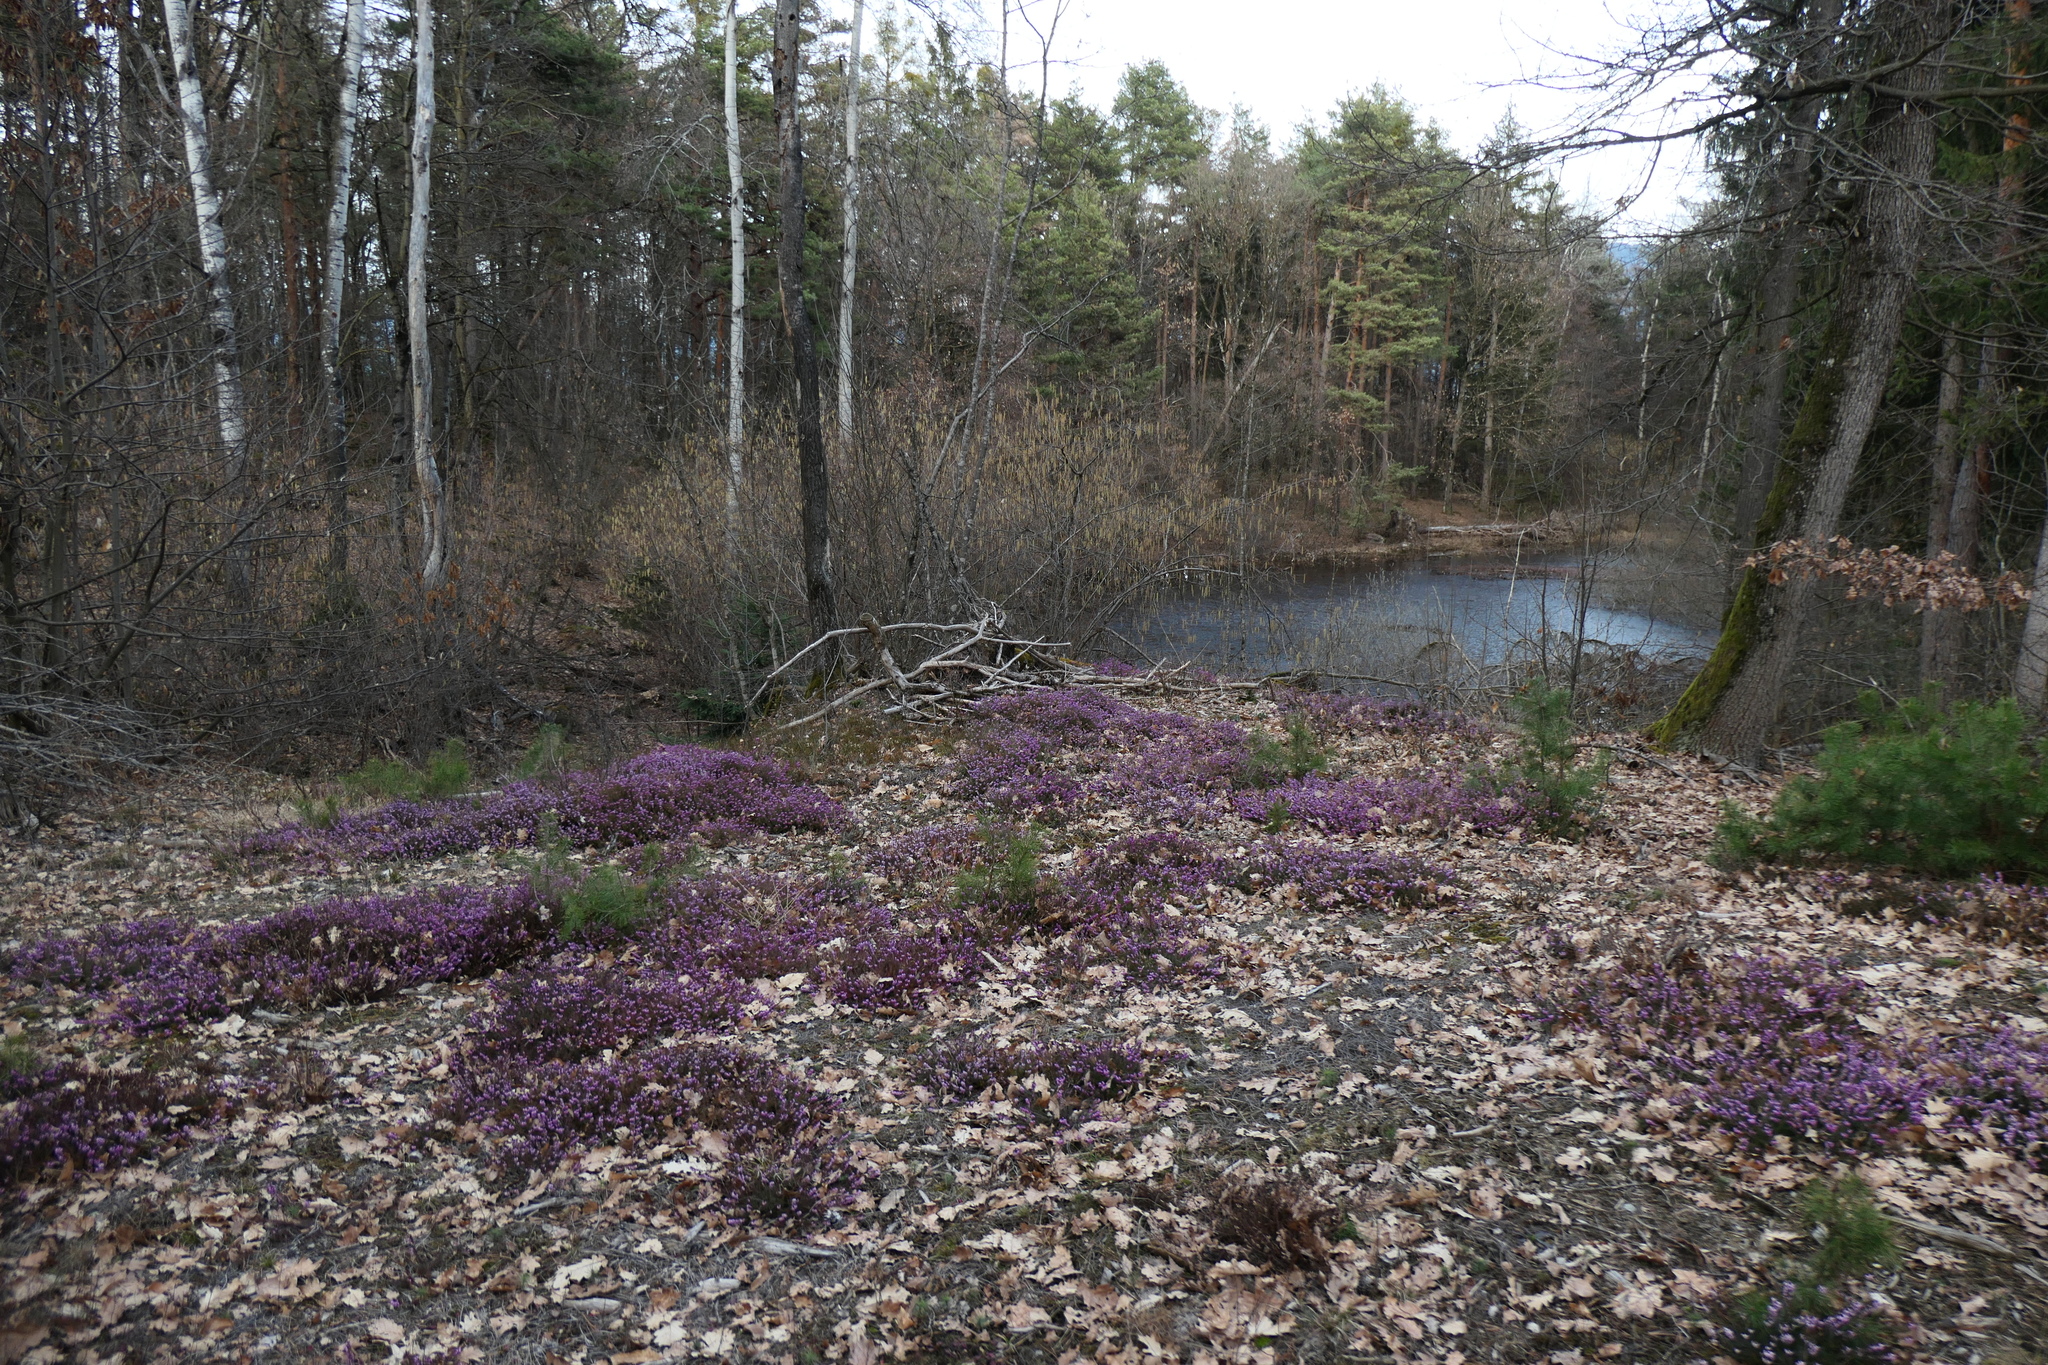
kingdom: Plantae
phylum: Tracheophyta
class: Magnoliopsida
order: Ericales
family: Ericaceae
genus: Erica
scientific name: Erica carnea
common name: Winter heath
